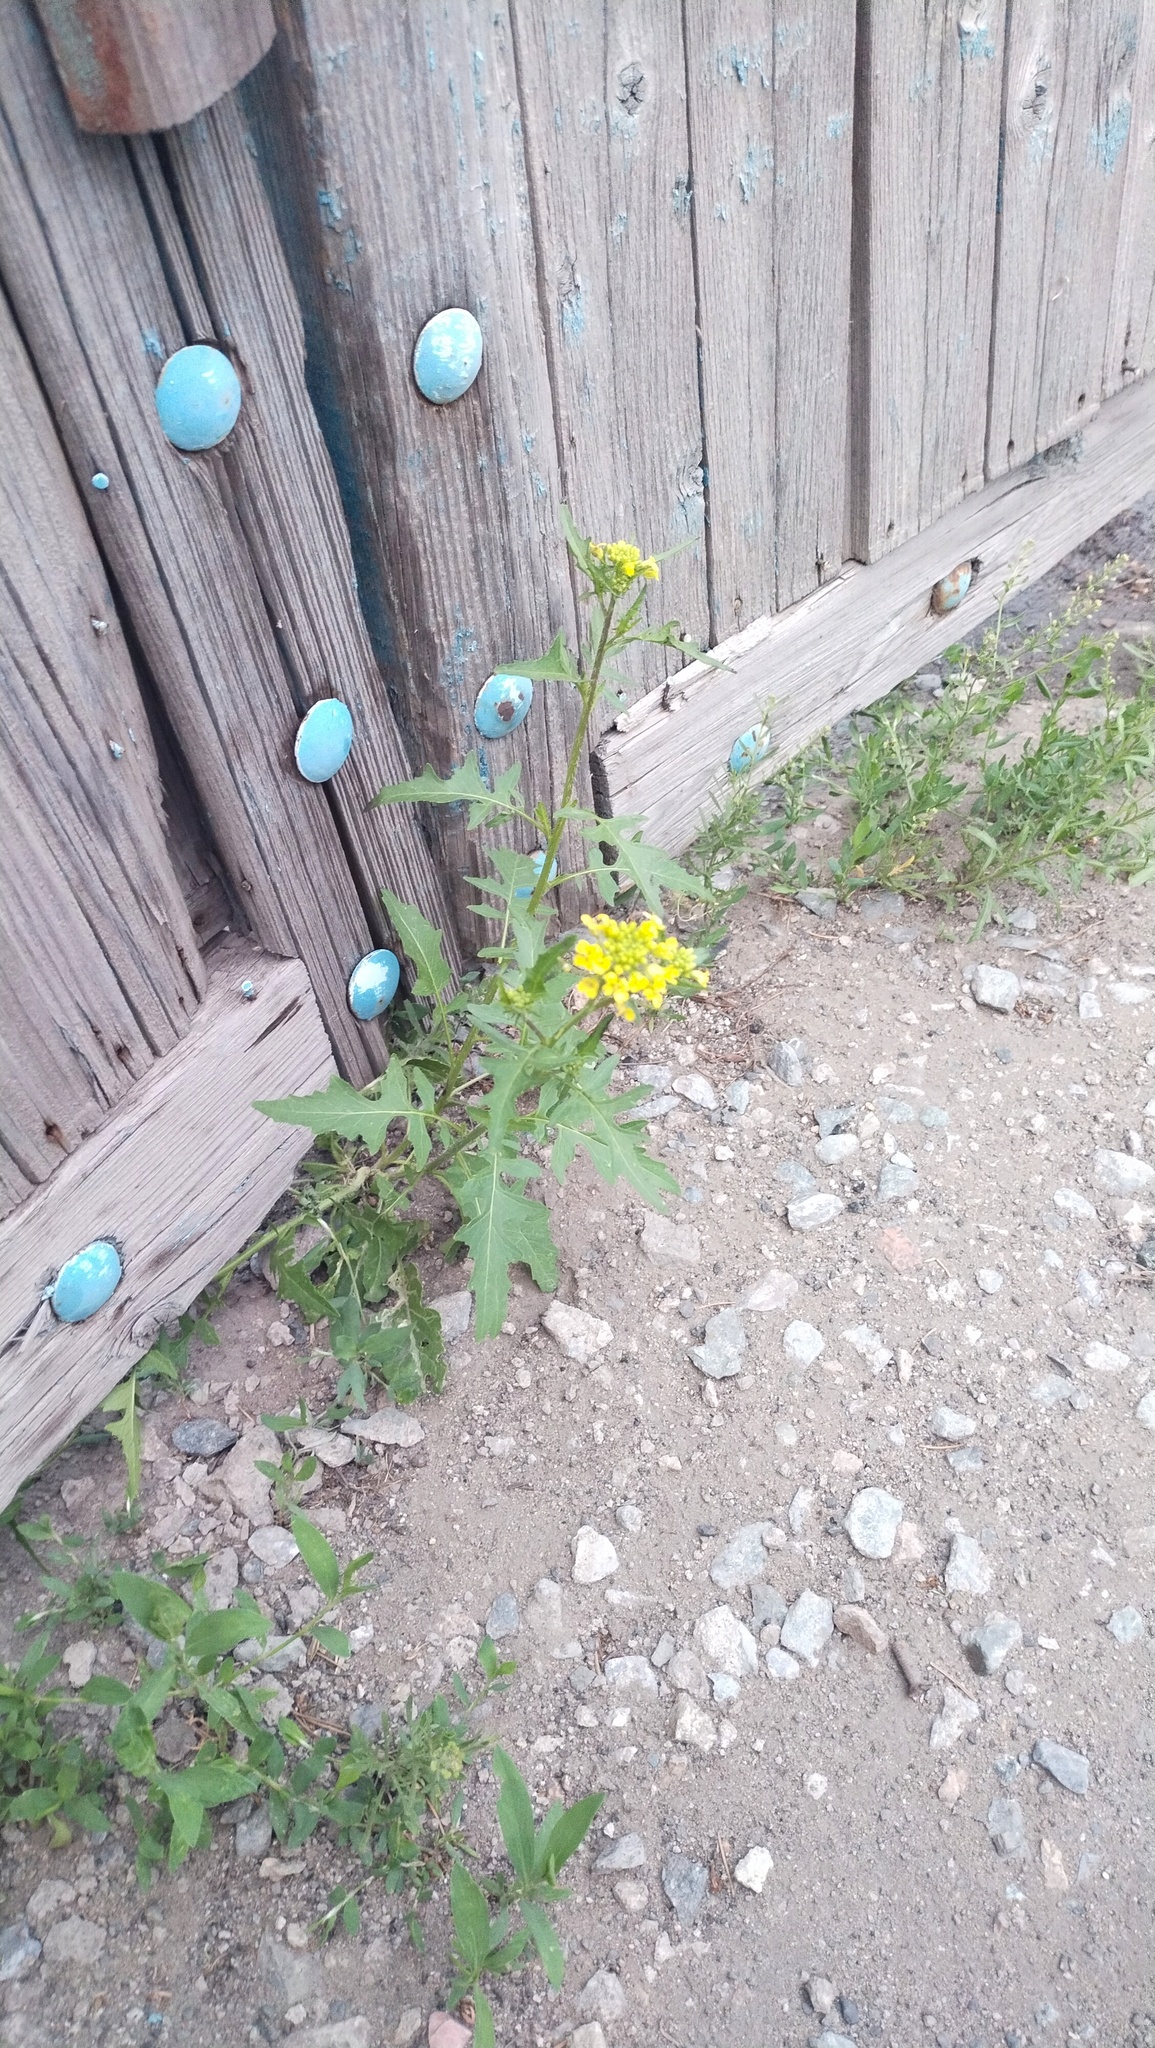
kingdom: Plantae
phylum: Tracheophyta
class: Magnoliopsida
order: Brassicales
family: Brassicaceae
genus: Sisymbrium
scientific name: Sisymbrium loeselii
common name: False london-rocket
